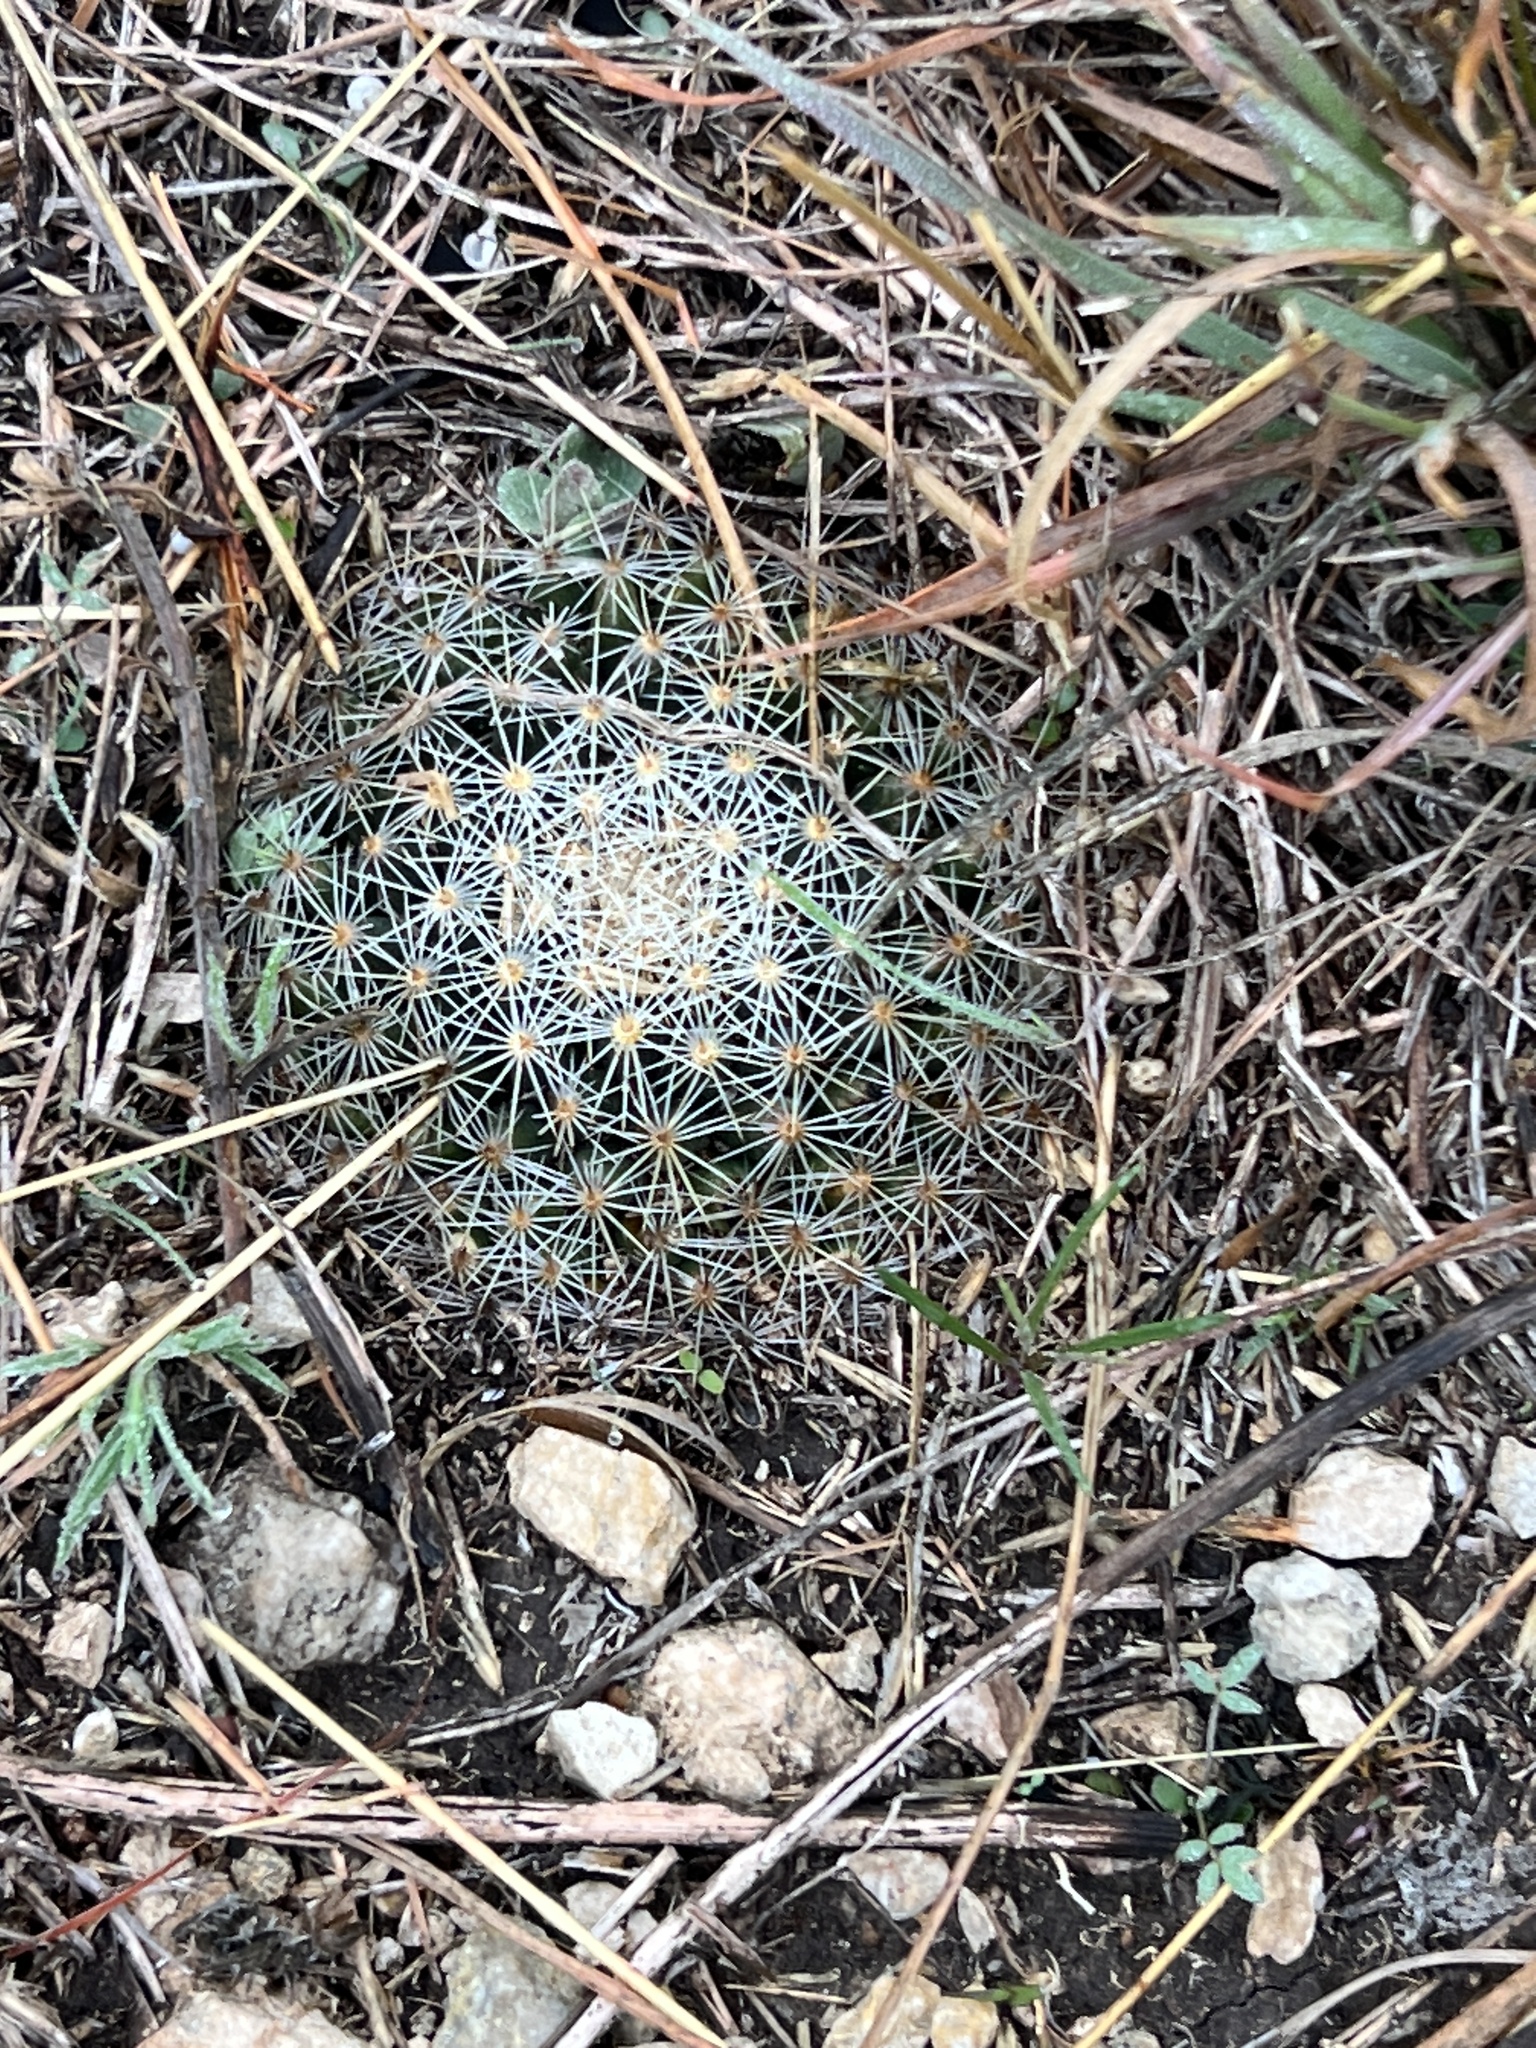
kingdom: Plantae
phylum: Tracheophyta
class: Magnoliopsida
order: Caryophyllales
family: Cactaceae
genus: Mammillaria
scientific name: Mammillaria heyderi
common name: Little nipple cactus
